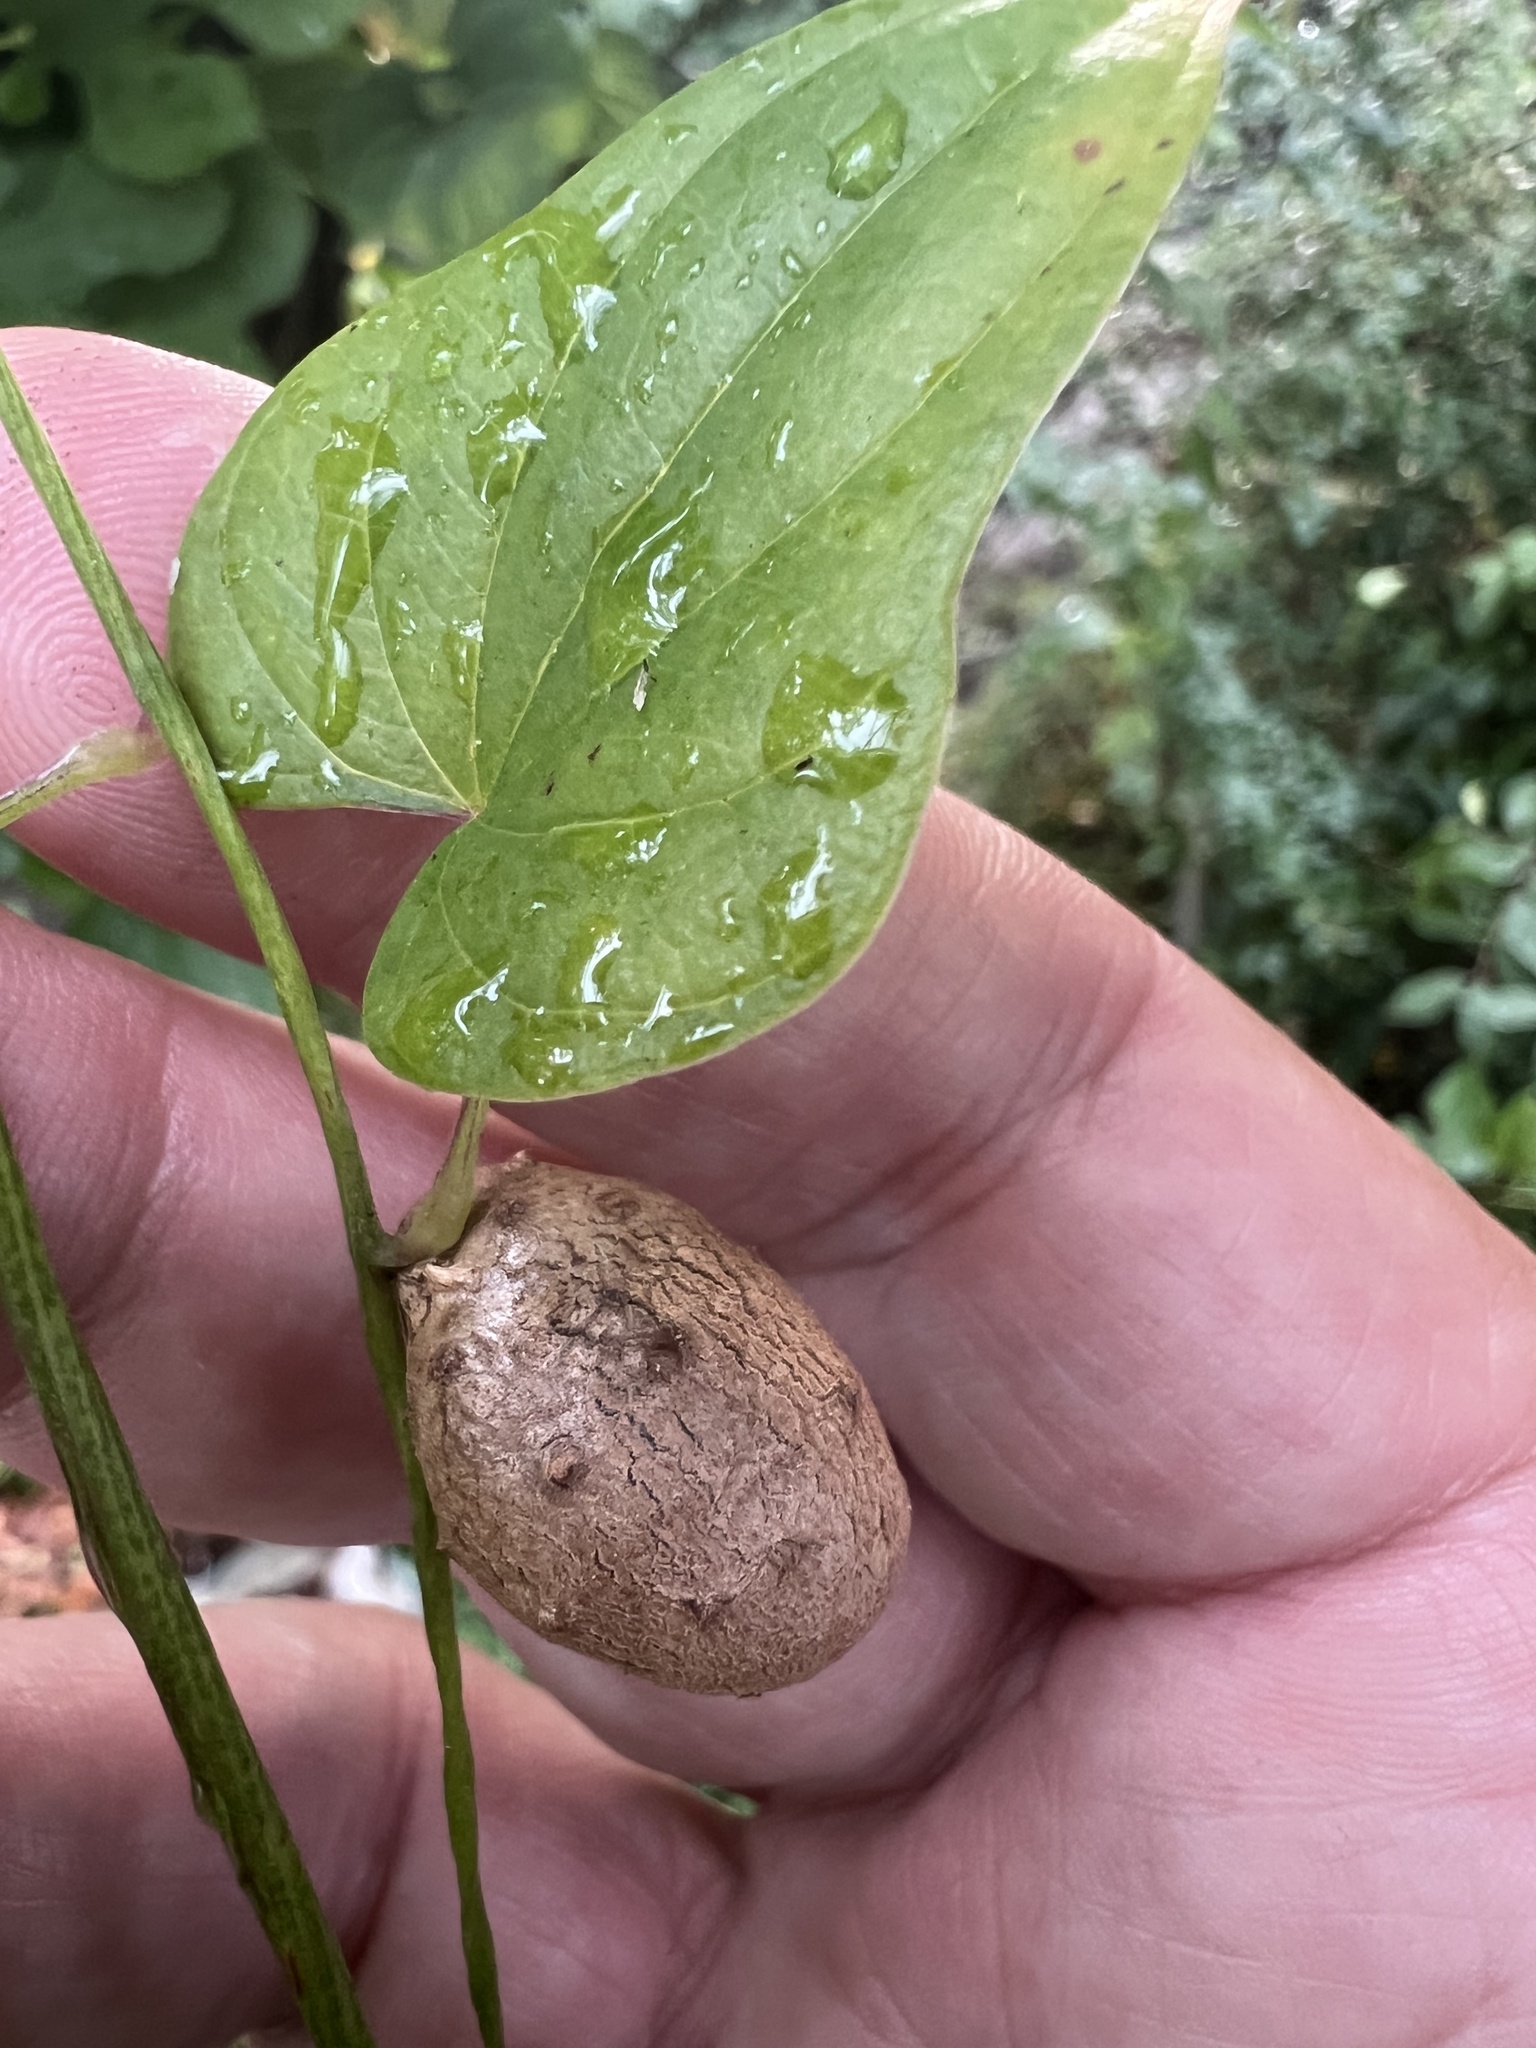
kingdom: Plantae
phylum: Tracheophyta
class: Liliopsida
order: Dioscoreales
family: Dioscoreaceae
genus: Dioscorea
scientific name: Dioscorea polystachya
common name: Chinese yam
